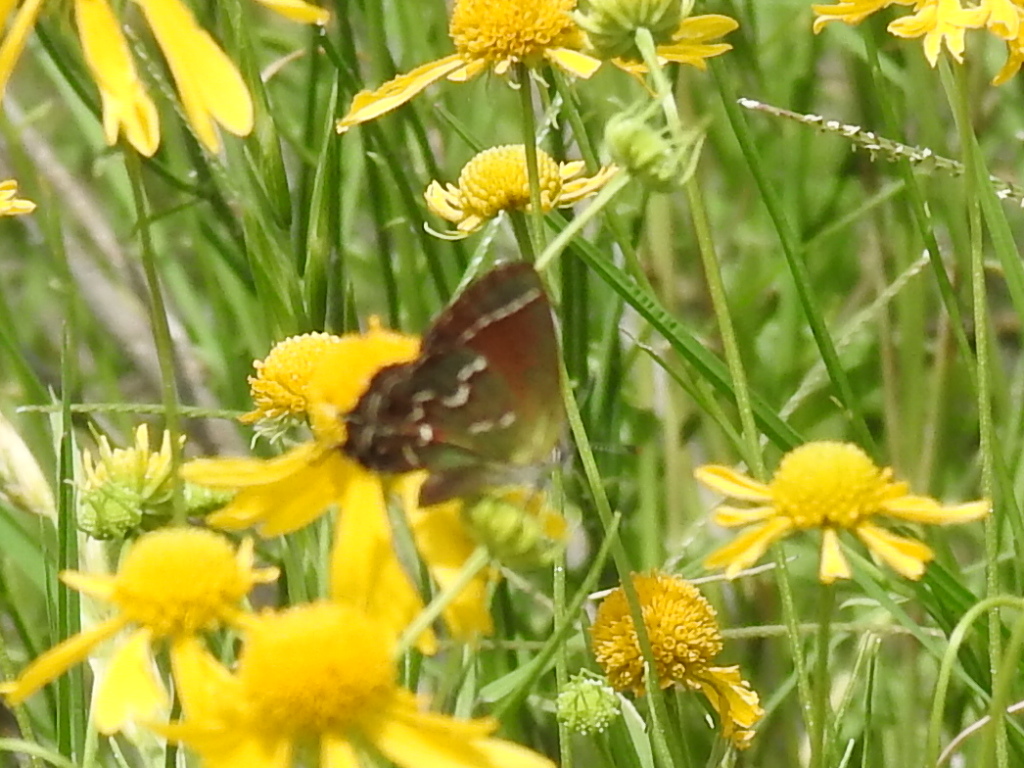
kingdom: Animalia
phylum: Arthropoda
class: Insecta
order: Lepidoptera
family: Lycaenidae
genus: Mitoura
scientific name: Mitoura gryneus
